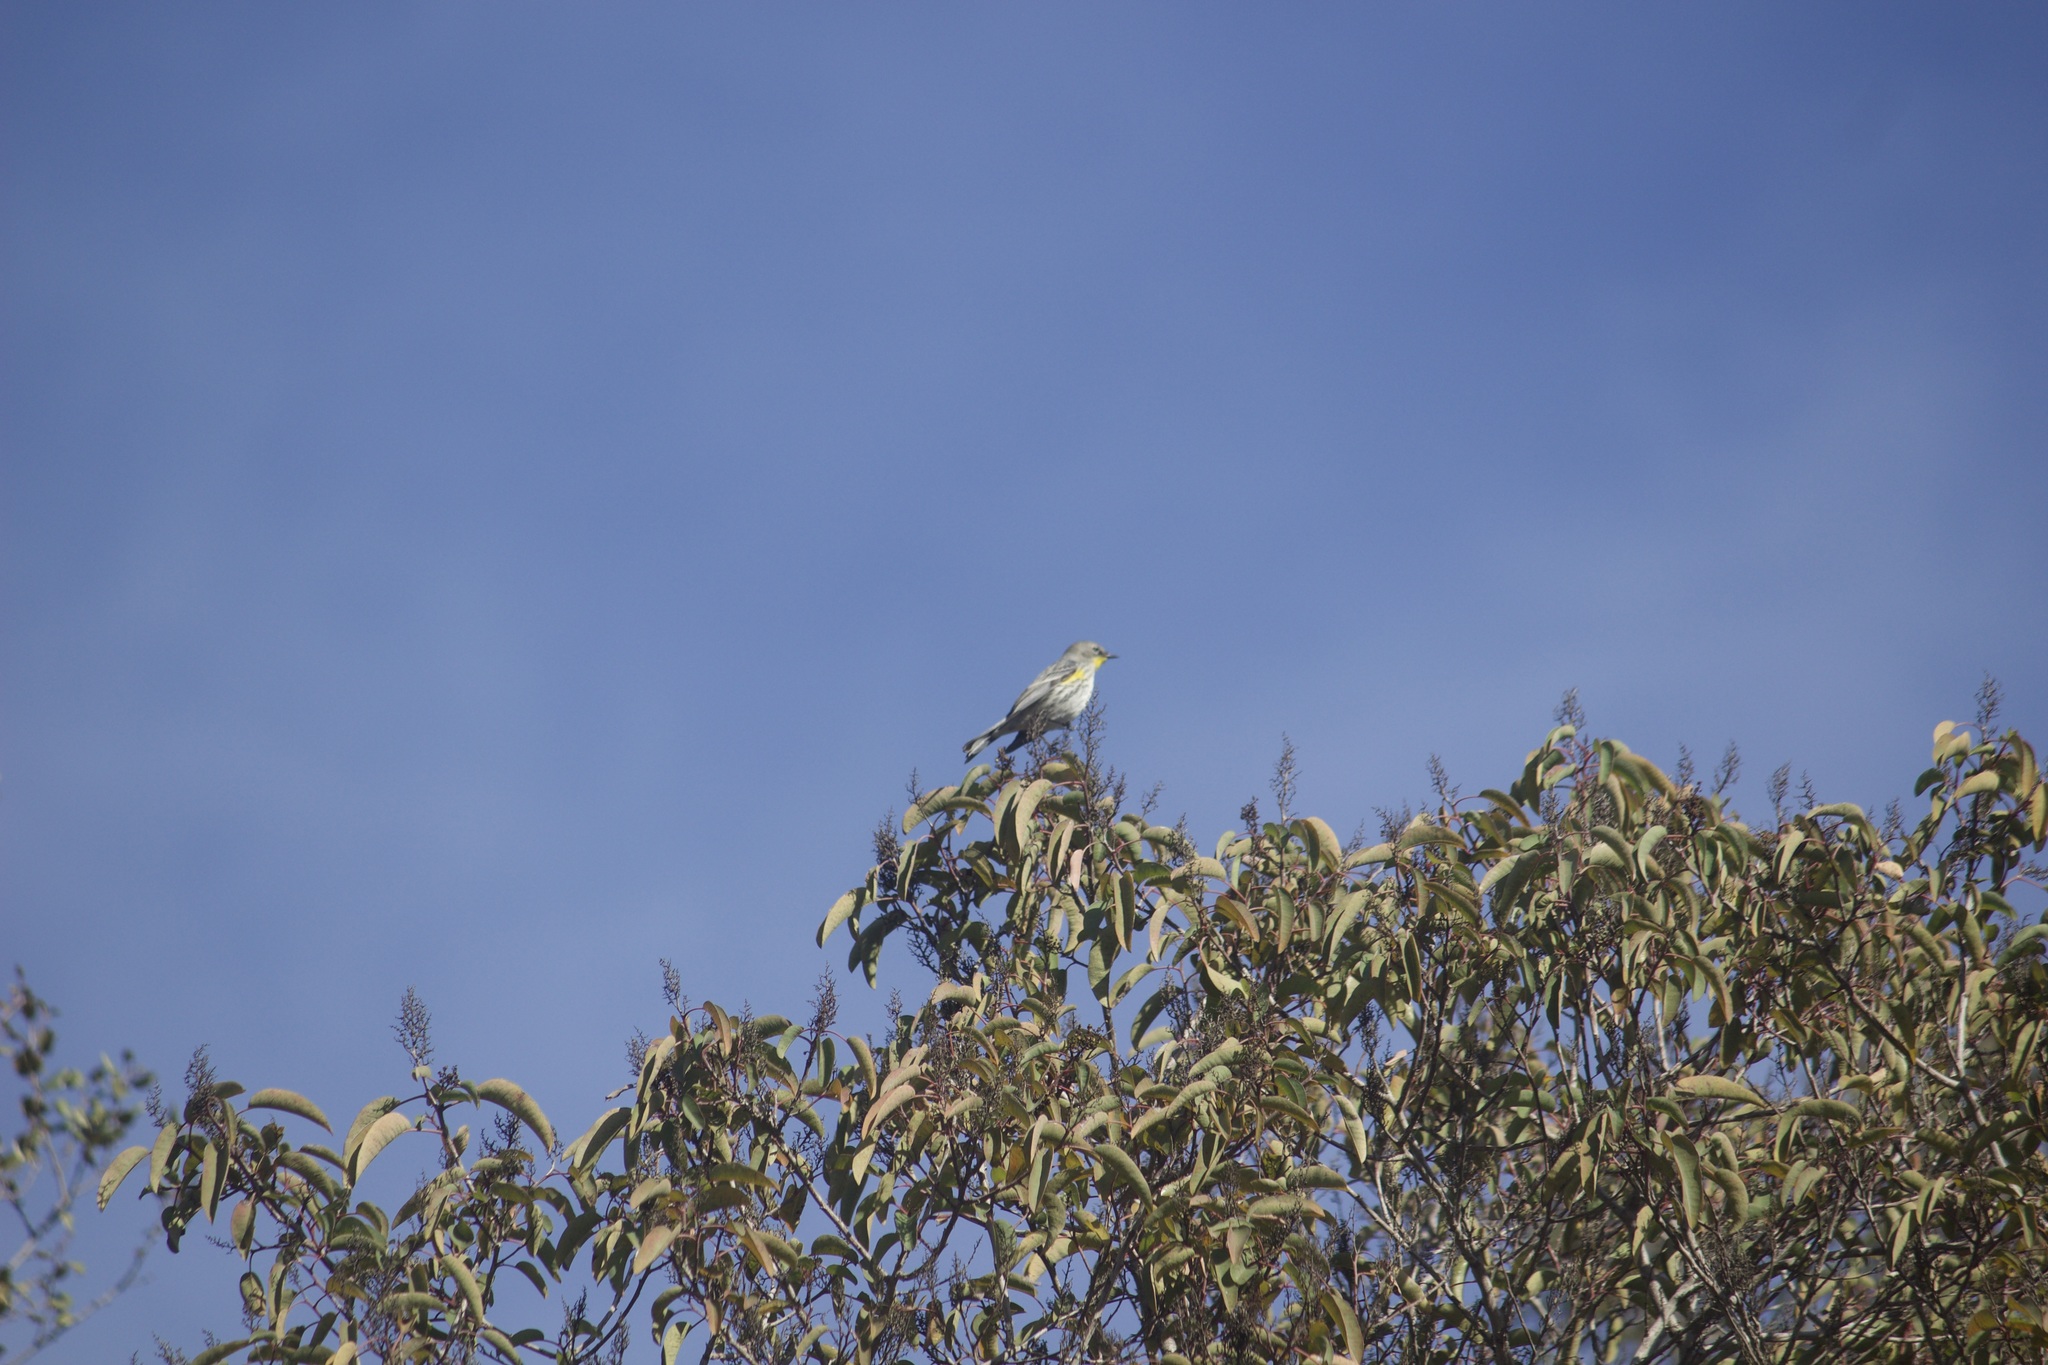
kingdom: Animalia
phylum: Chordata
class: Aves
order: Passeriformes
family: Parulidae
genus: Setophaga
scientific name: Setophaga coronata
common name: Myrtle warbler
